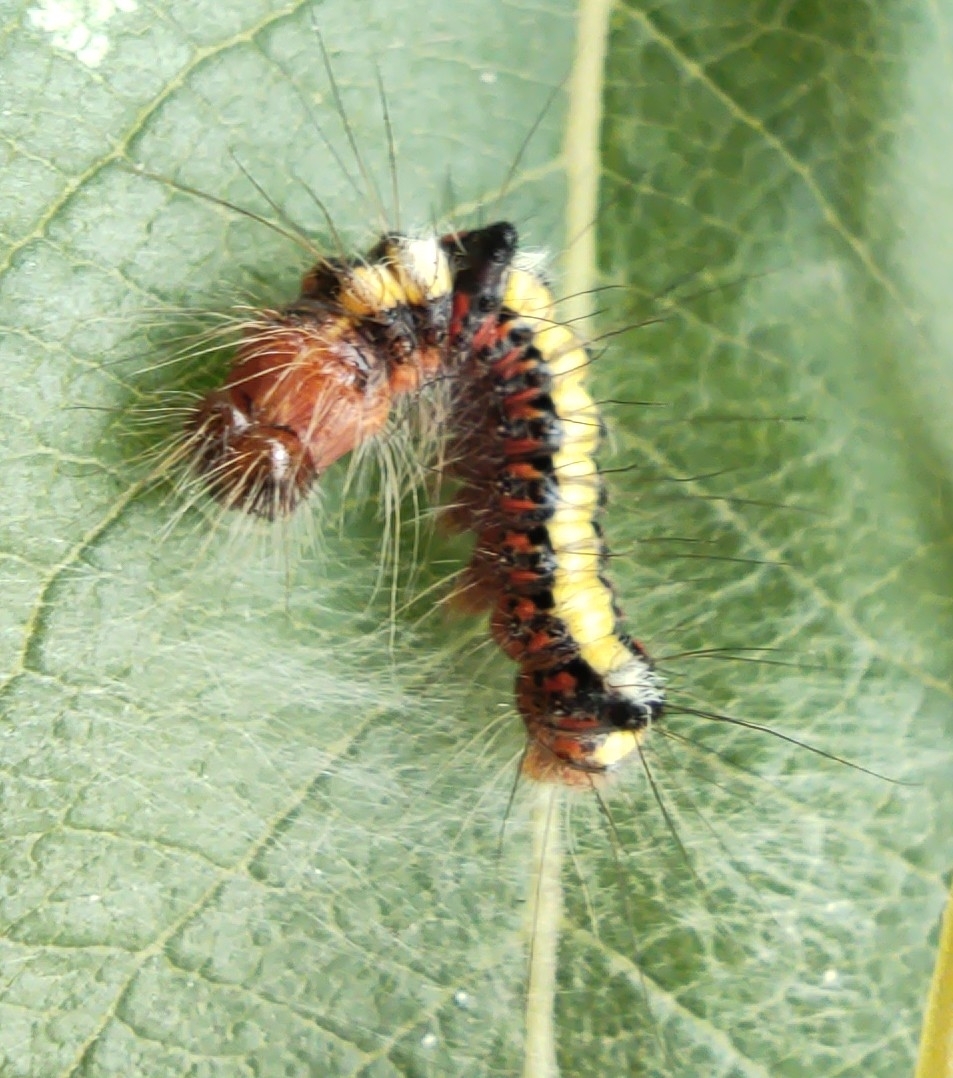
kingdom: Animalia
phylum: Arthropoda
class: Insecta
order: Lepidoptera
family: Noctuidae
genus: Acronicta
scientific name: Acronicta psi
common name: Grey dagger
